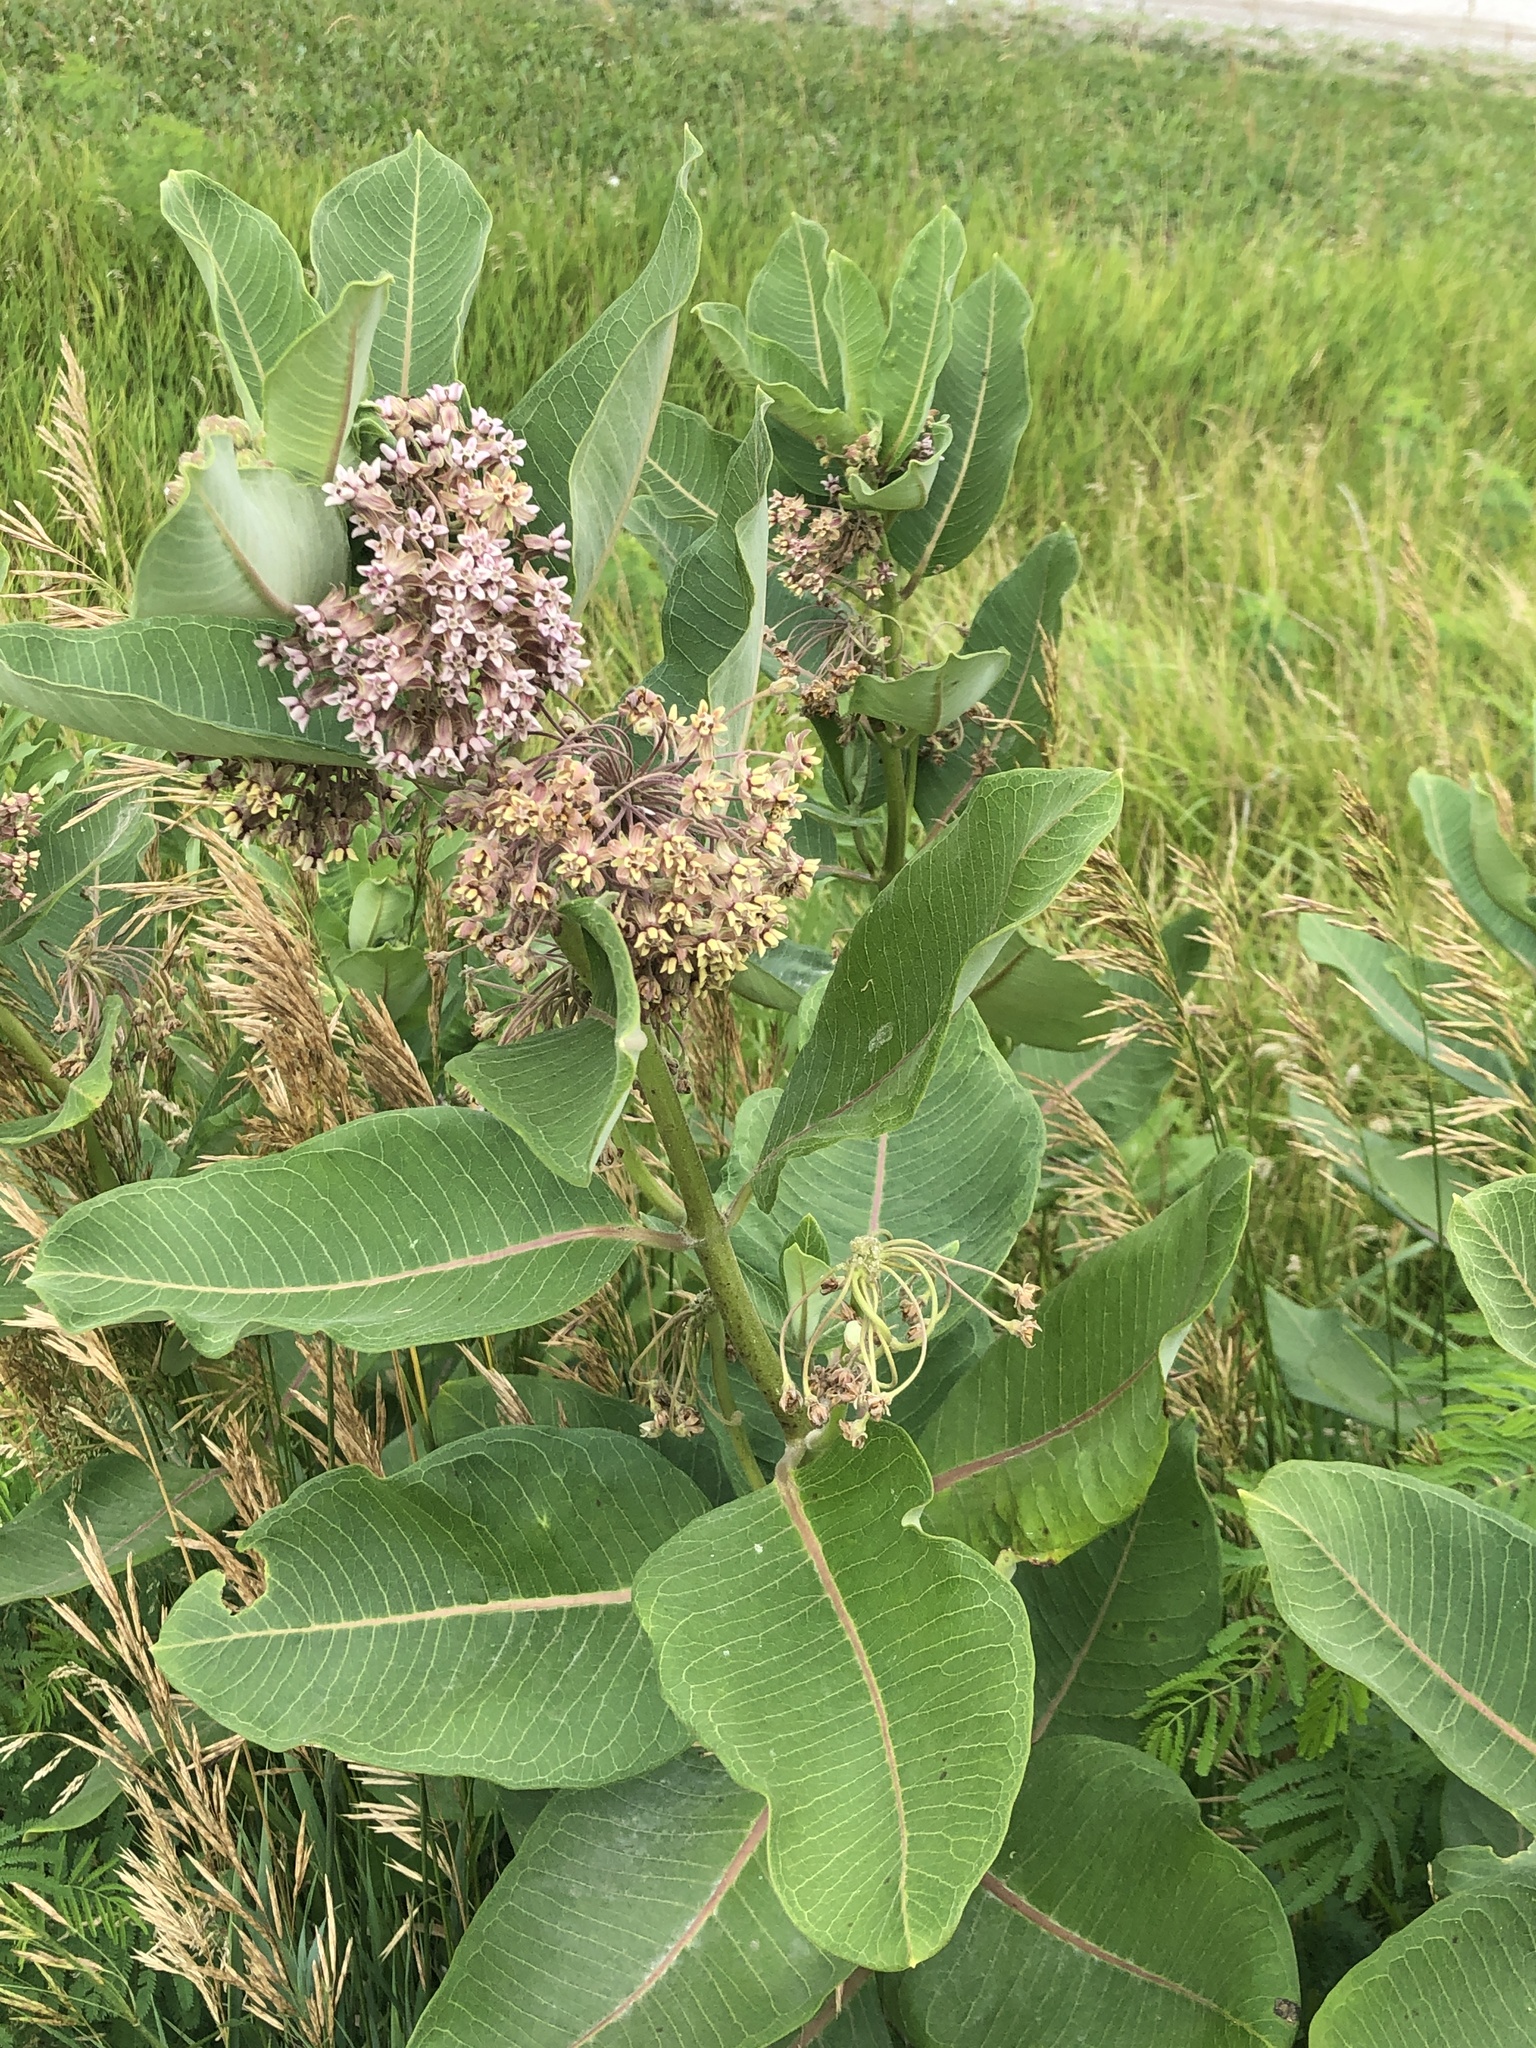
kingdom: Plantae
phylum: Tracheophyta
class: Magnoliopsida
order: Gentianales
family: Apocynaceae
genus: Asclepias
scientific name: Asclepias syriaca
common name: Common milkweed
